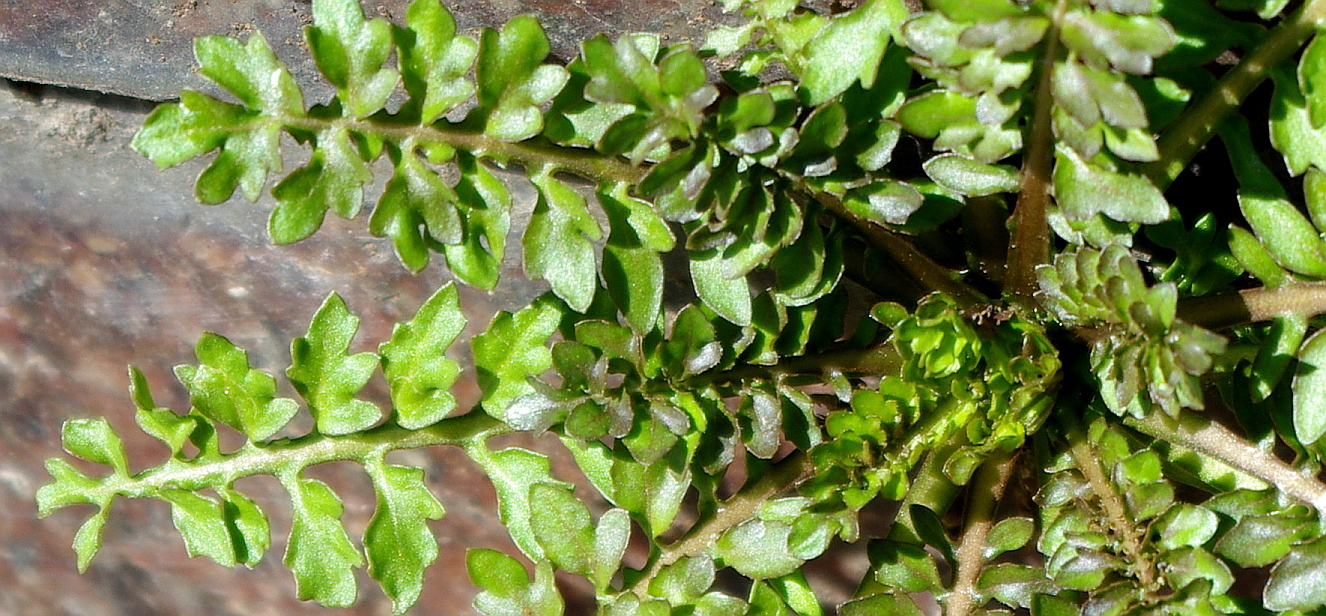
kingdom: Plantae
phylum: Tracheophyta
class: Magnoliopsida
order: Brassicales
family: Brassicaceae
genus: Rorippa
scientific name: Rorippa palustris
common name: Marsh yellow-cress
